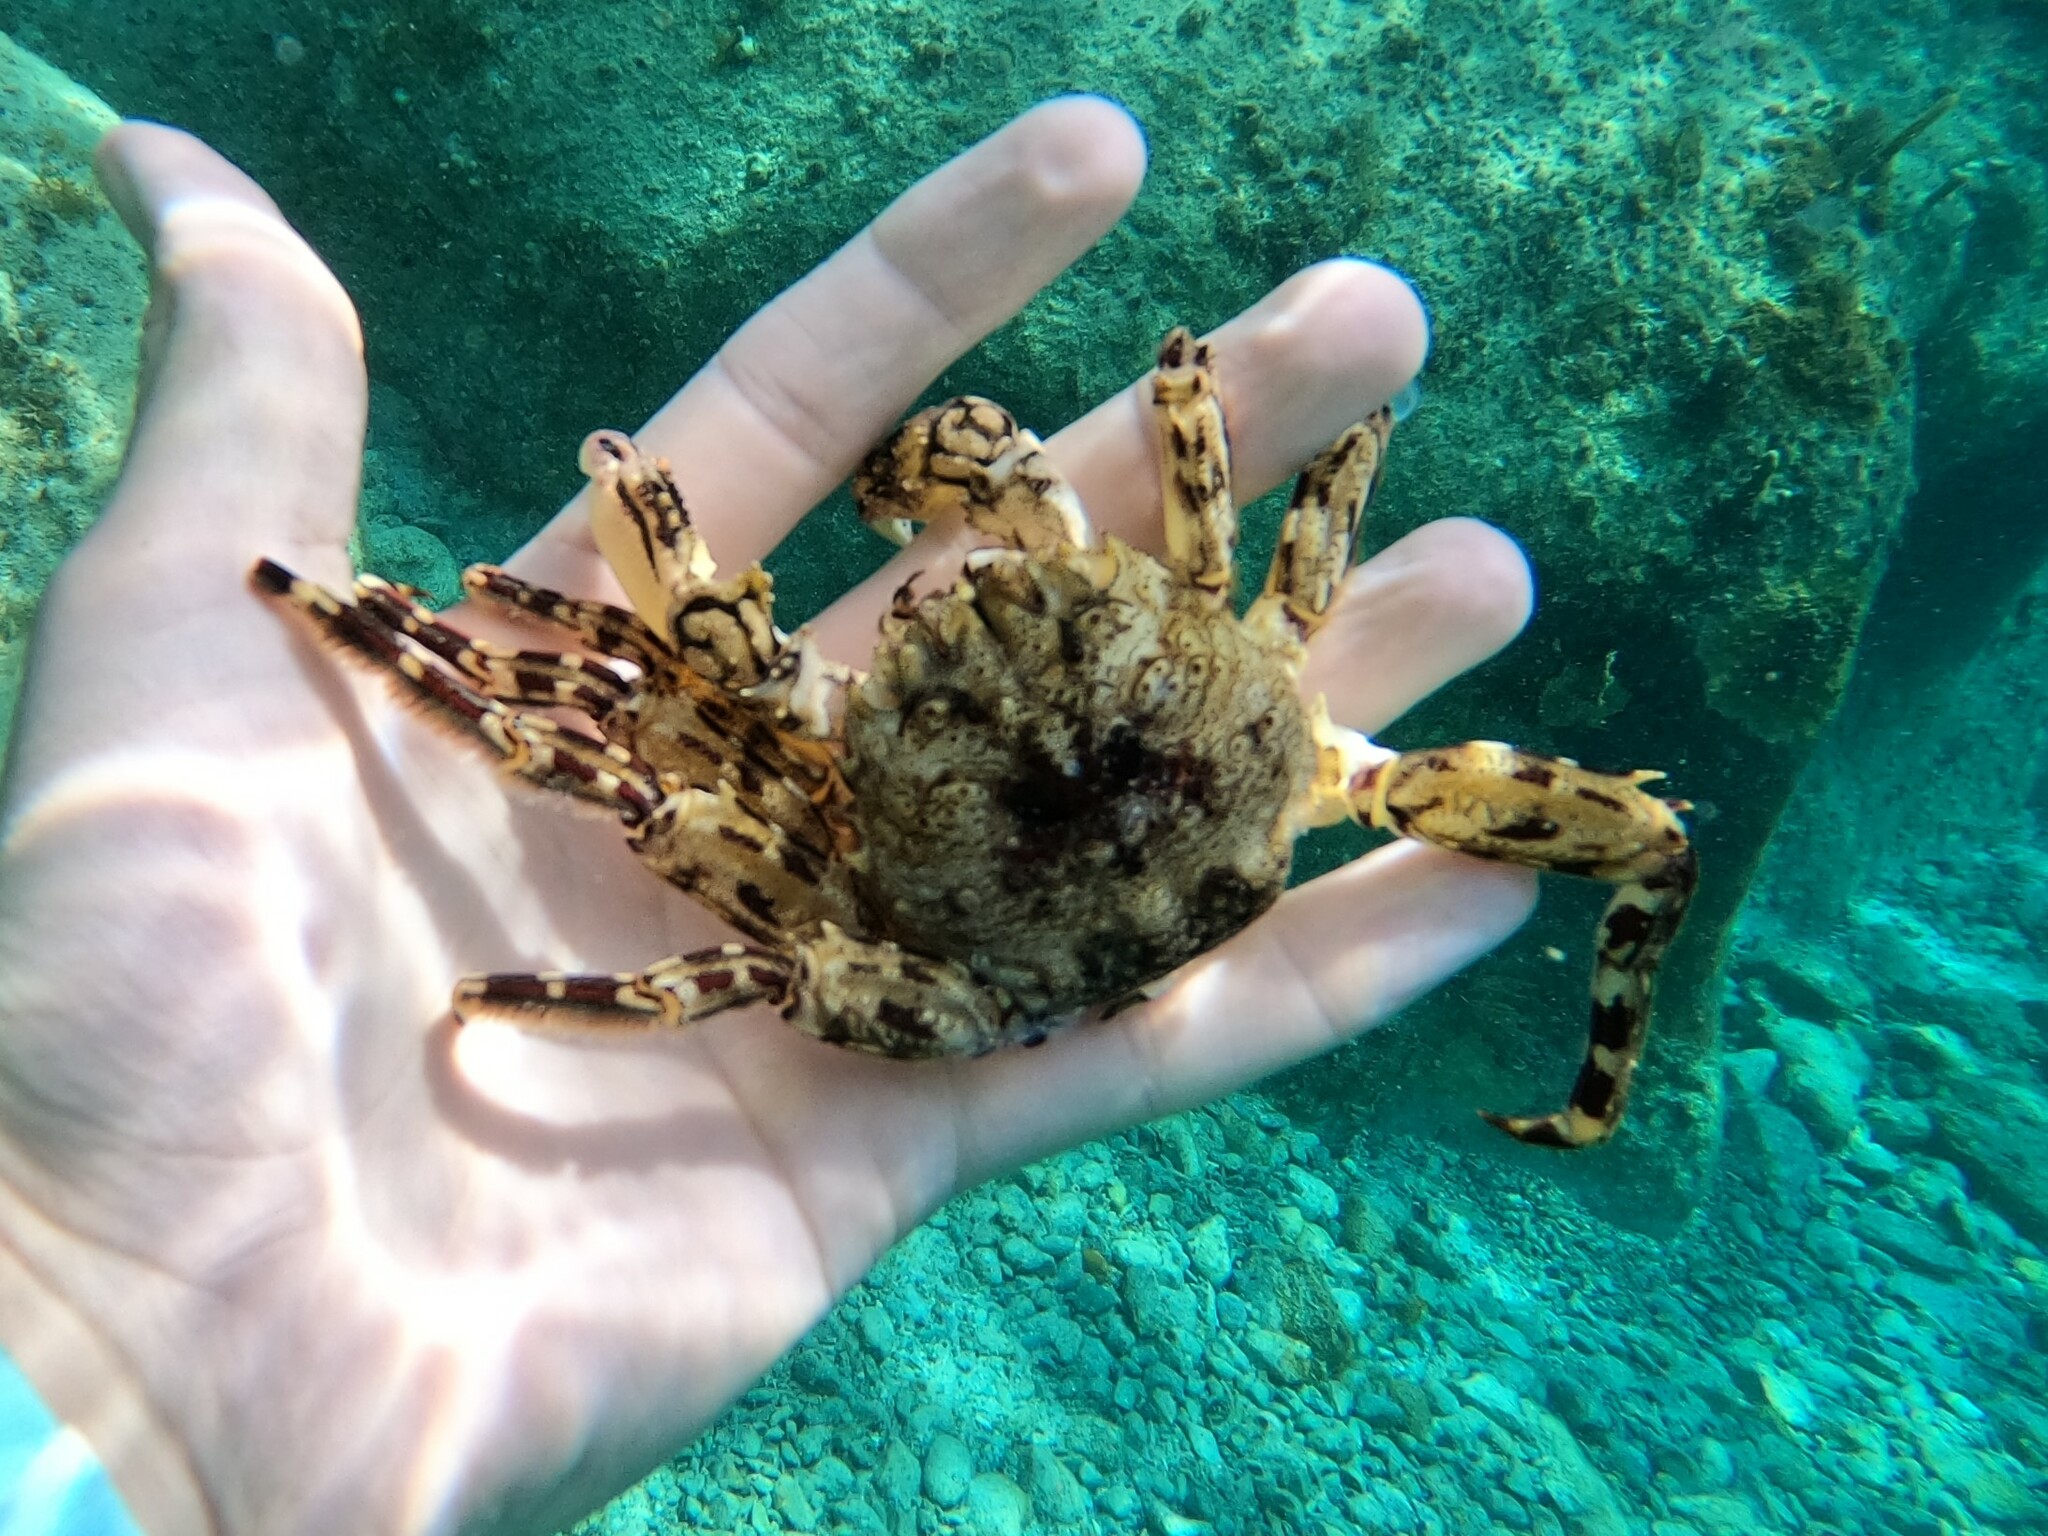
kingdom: Animalia
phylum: Arthropoda
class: Malacostraca
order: Decapoda
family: Plagusiidae
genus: Plagusia
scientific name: Plagusia depressa
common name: Flattened crab
